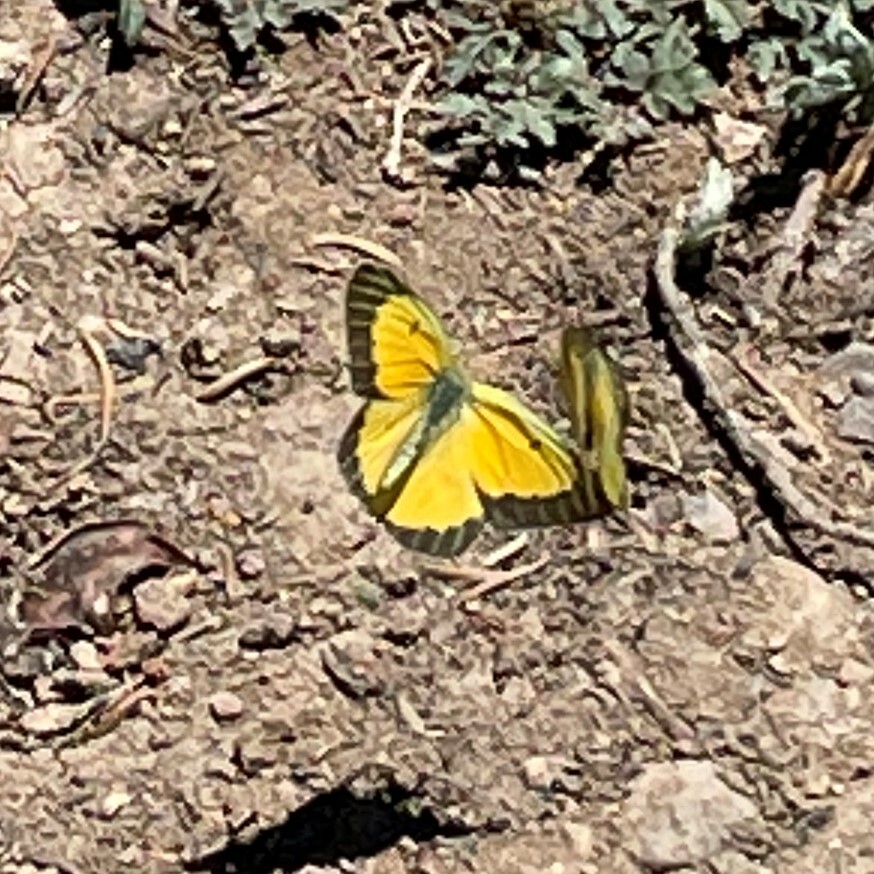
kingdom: Animalia
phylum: Arthropoda
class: Insecta
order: Lepidoptera
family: Pieridae
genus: Colias
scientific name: Colias eurytheme
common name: Alfalfa butterfly
